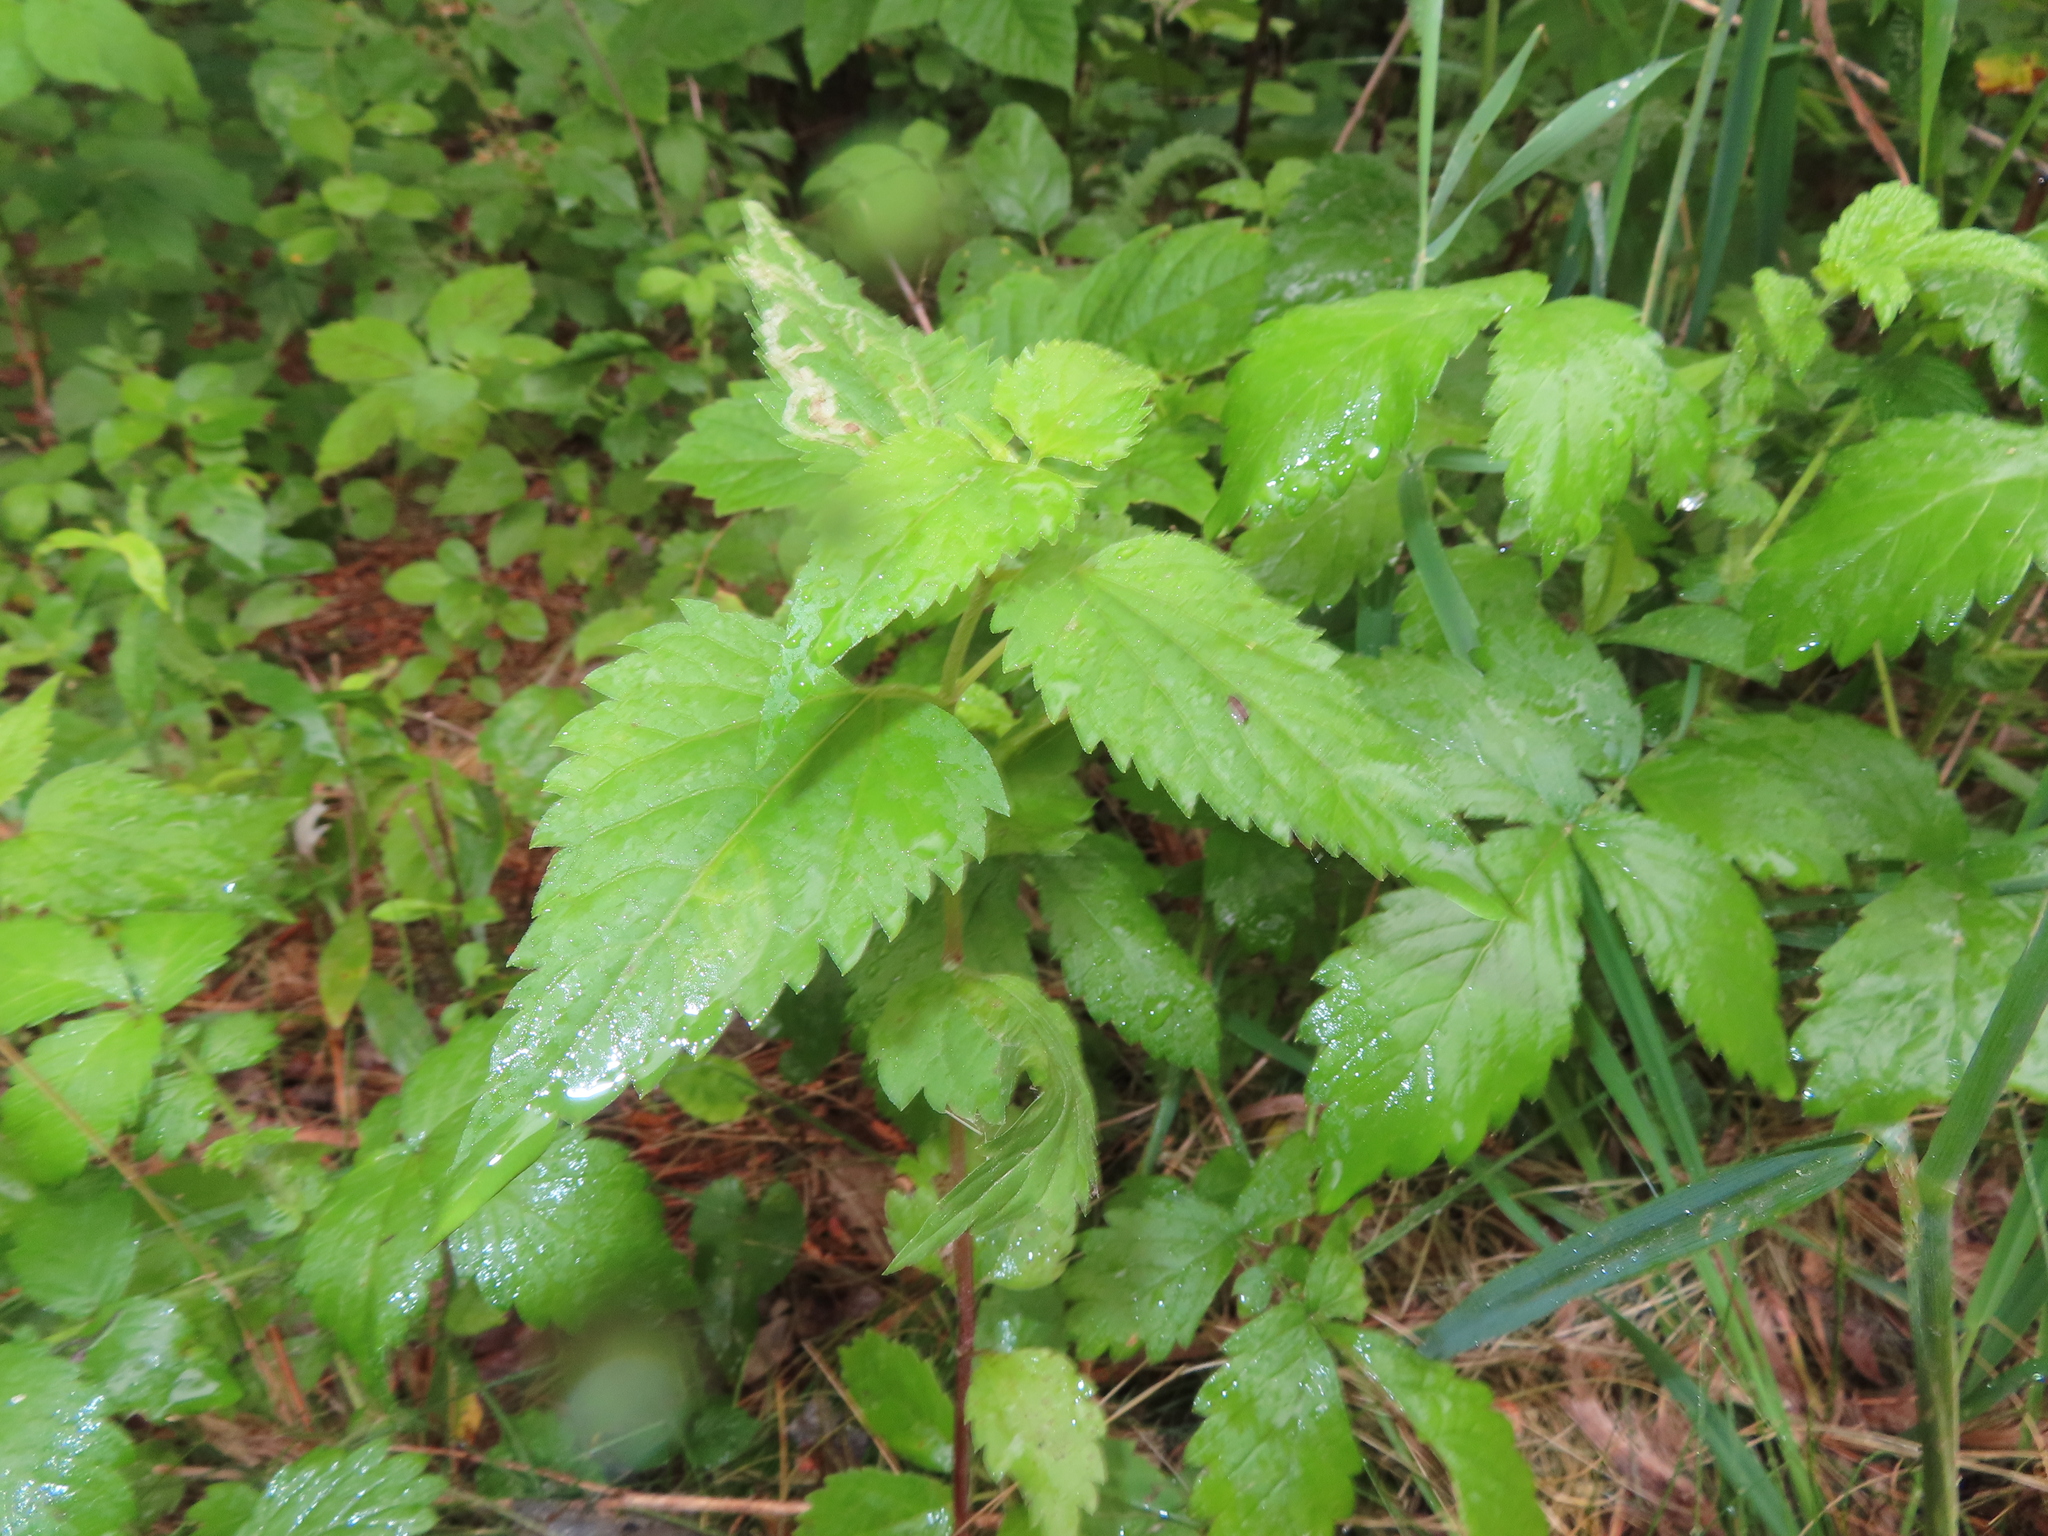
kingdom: Plantae
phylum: Tracheophyta
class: Magnoliopsida
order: Asterales
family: Asteraceae
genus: Ageratina
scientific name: Ageratina altissima
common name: White snakeroot
